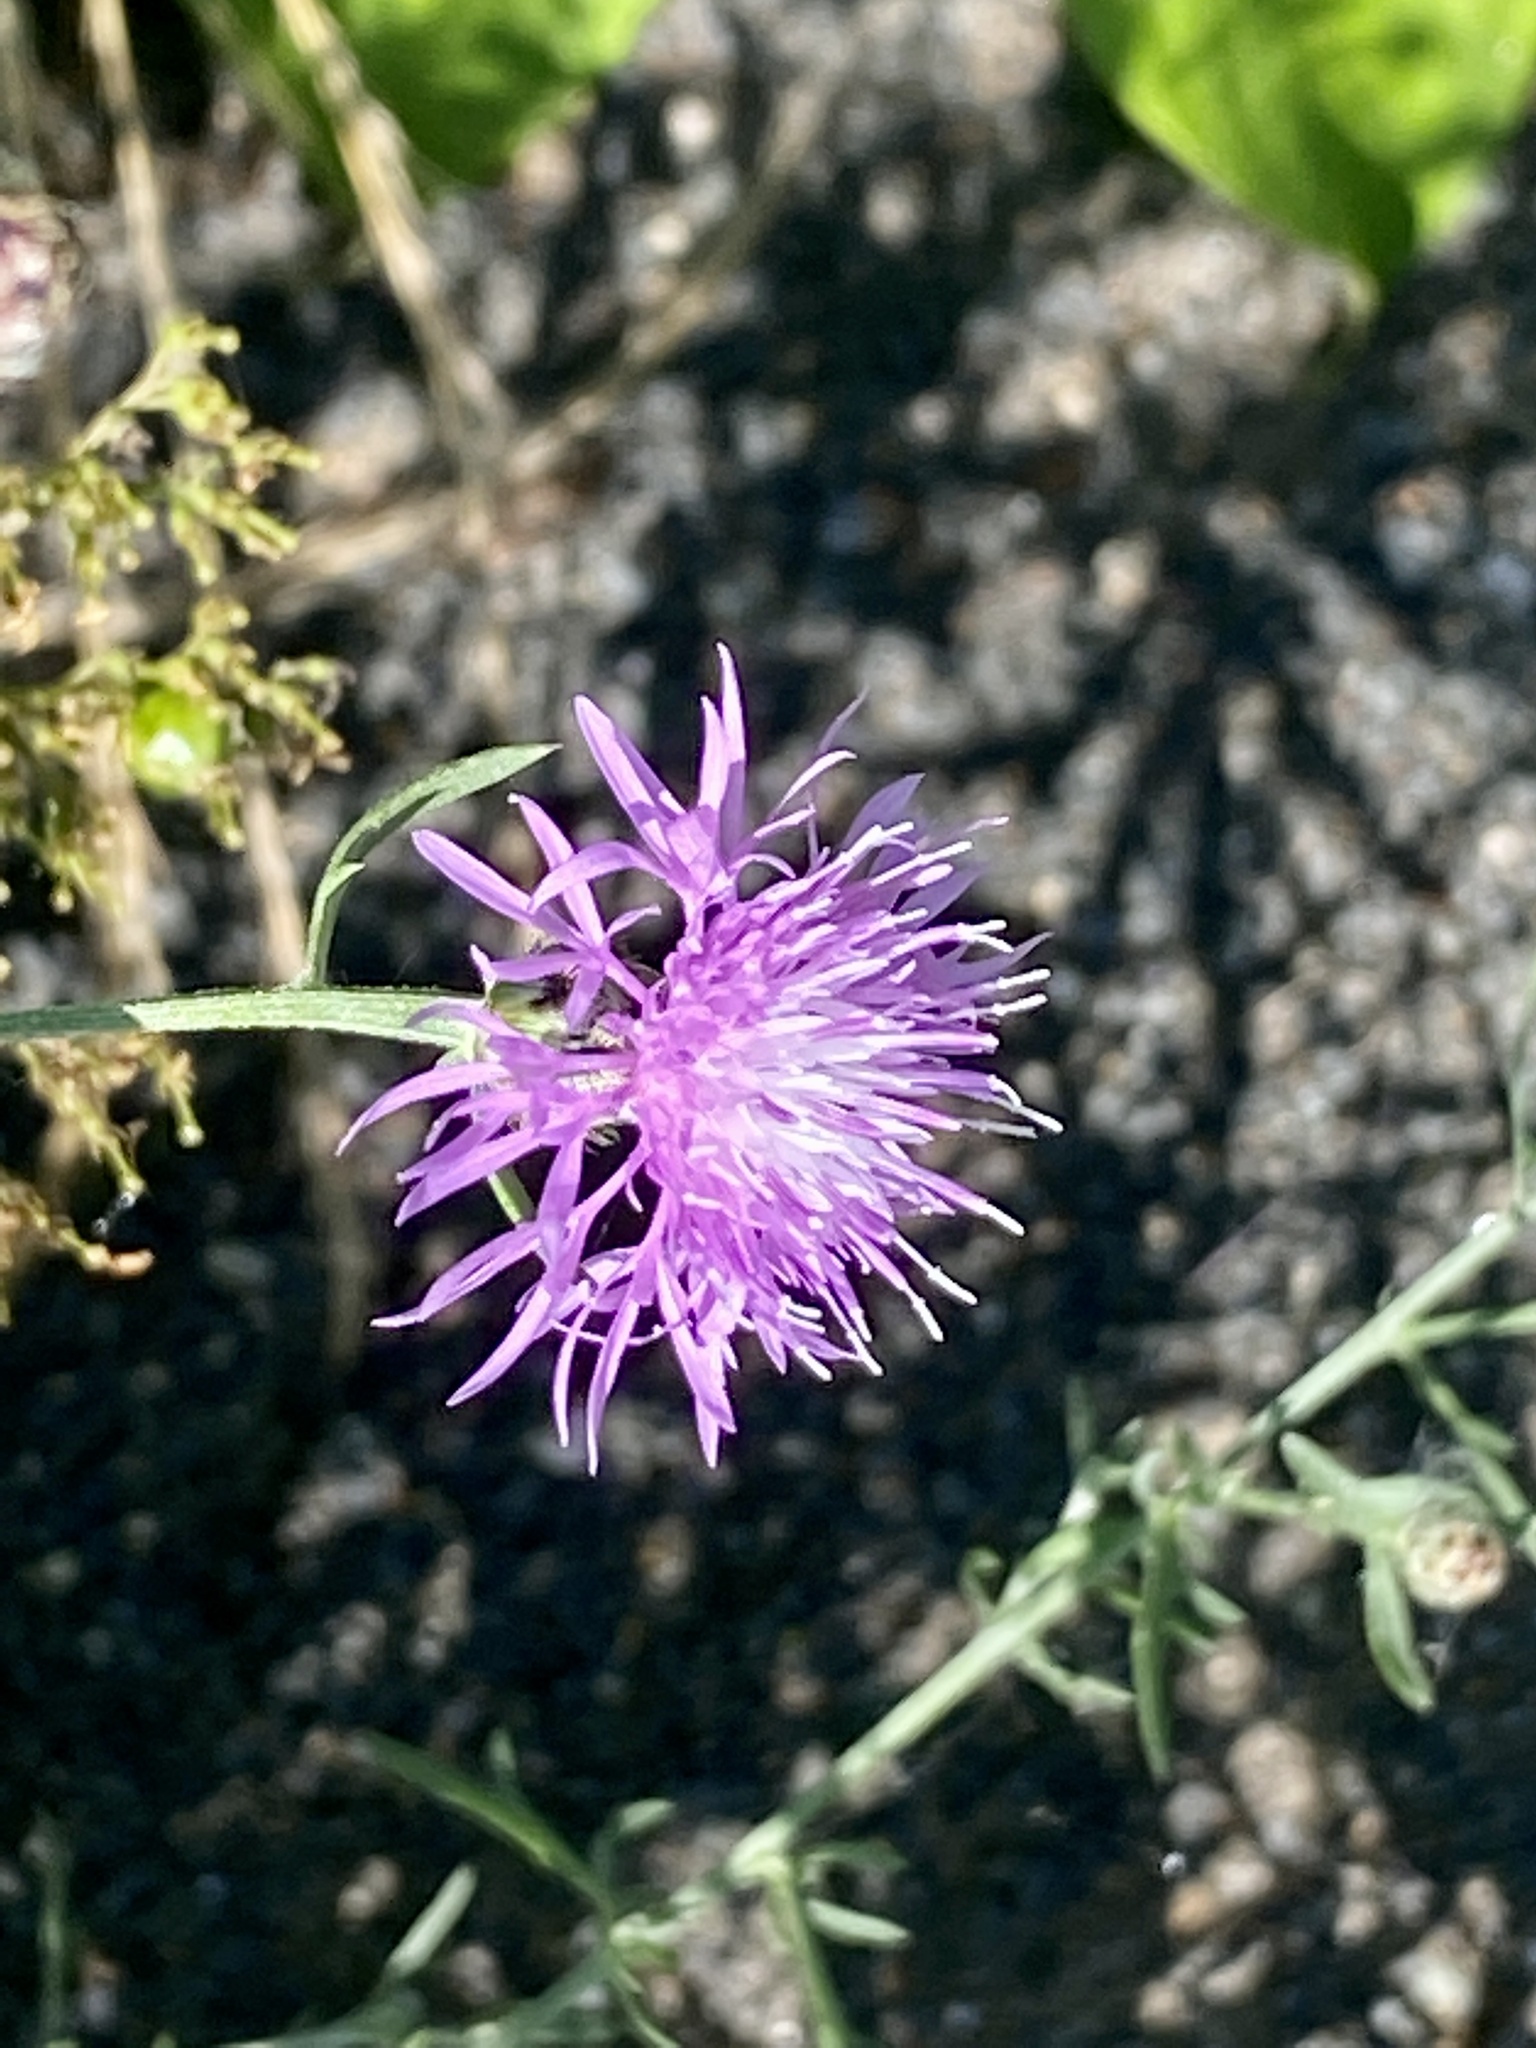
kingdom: Plantae
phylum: Tracheophyta
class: Magnoliopsida
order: Asterales
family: Asteraceae
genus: Centaurea
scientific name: Centaurea stoebe
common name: Spotted knapweed
